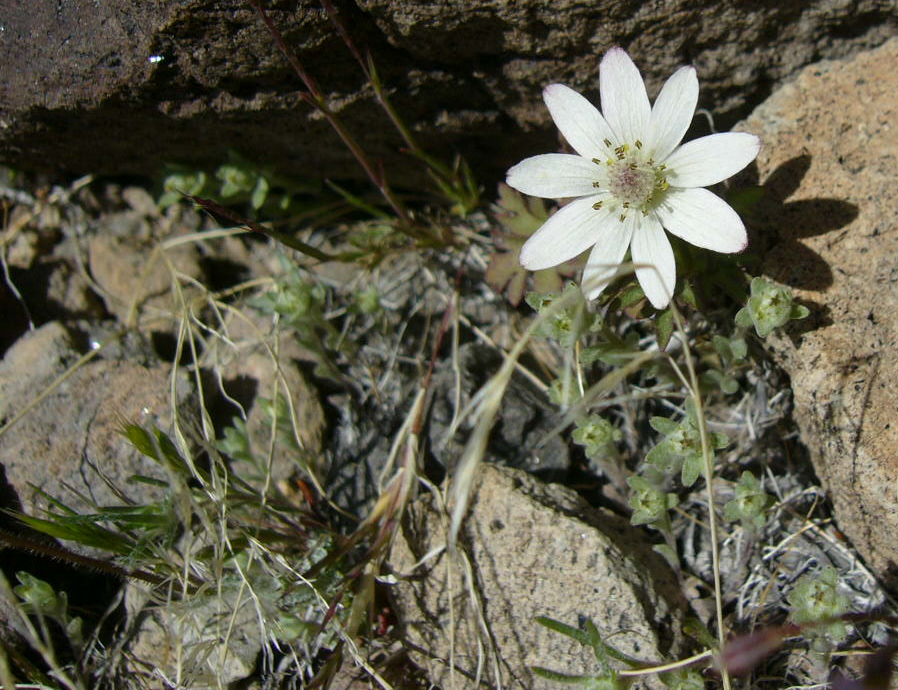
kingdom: Plantae
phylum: Tracheophyta
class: Magnoliopsida
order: Ranunculales
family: Ranunculaceae
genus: Anemone
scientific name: Anemone tuberosa
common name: Desert anemone
